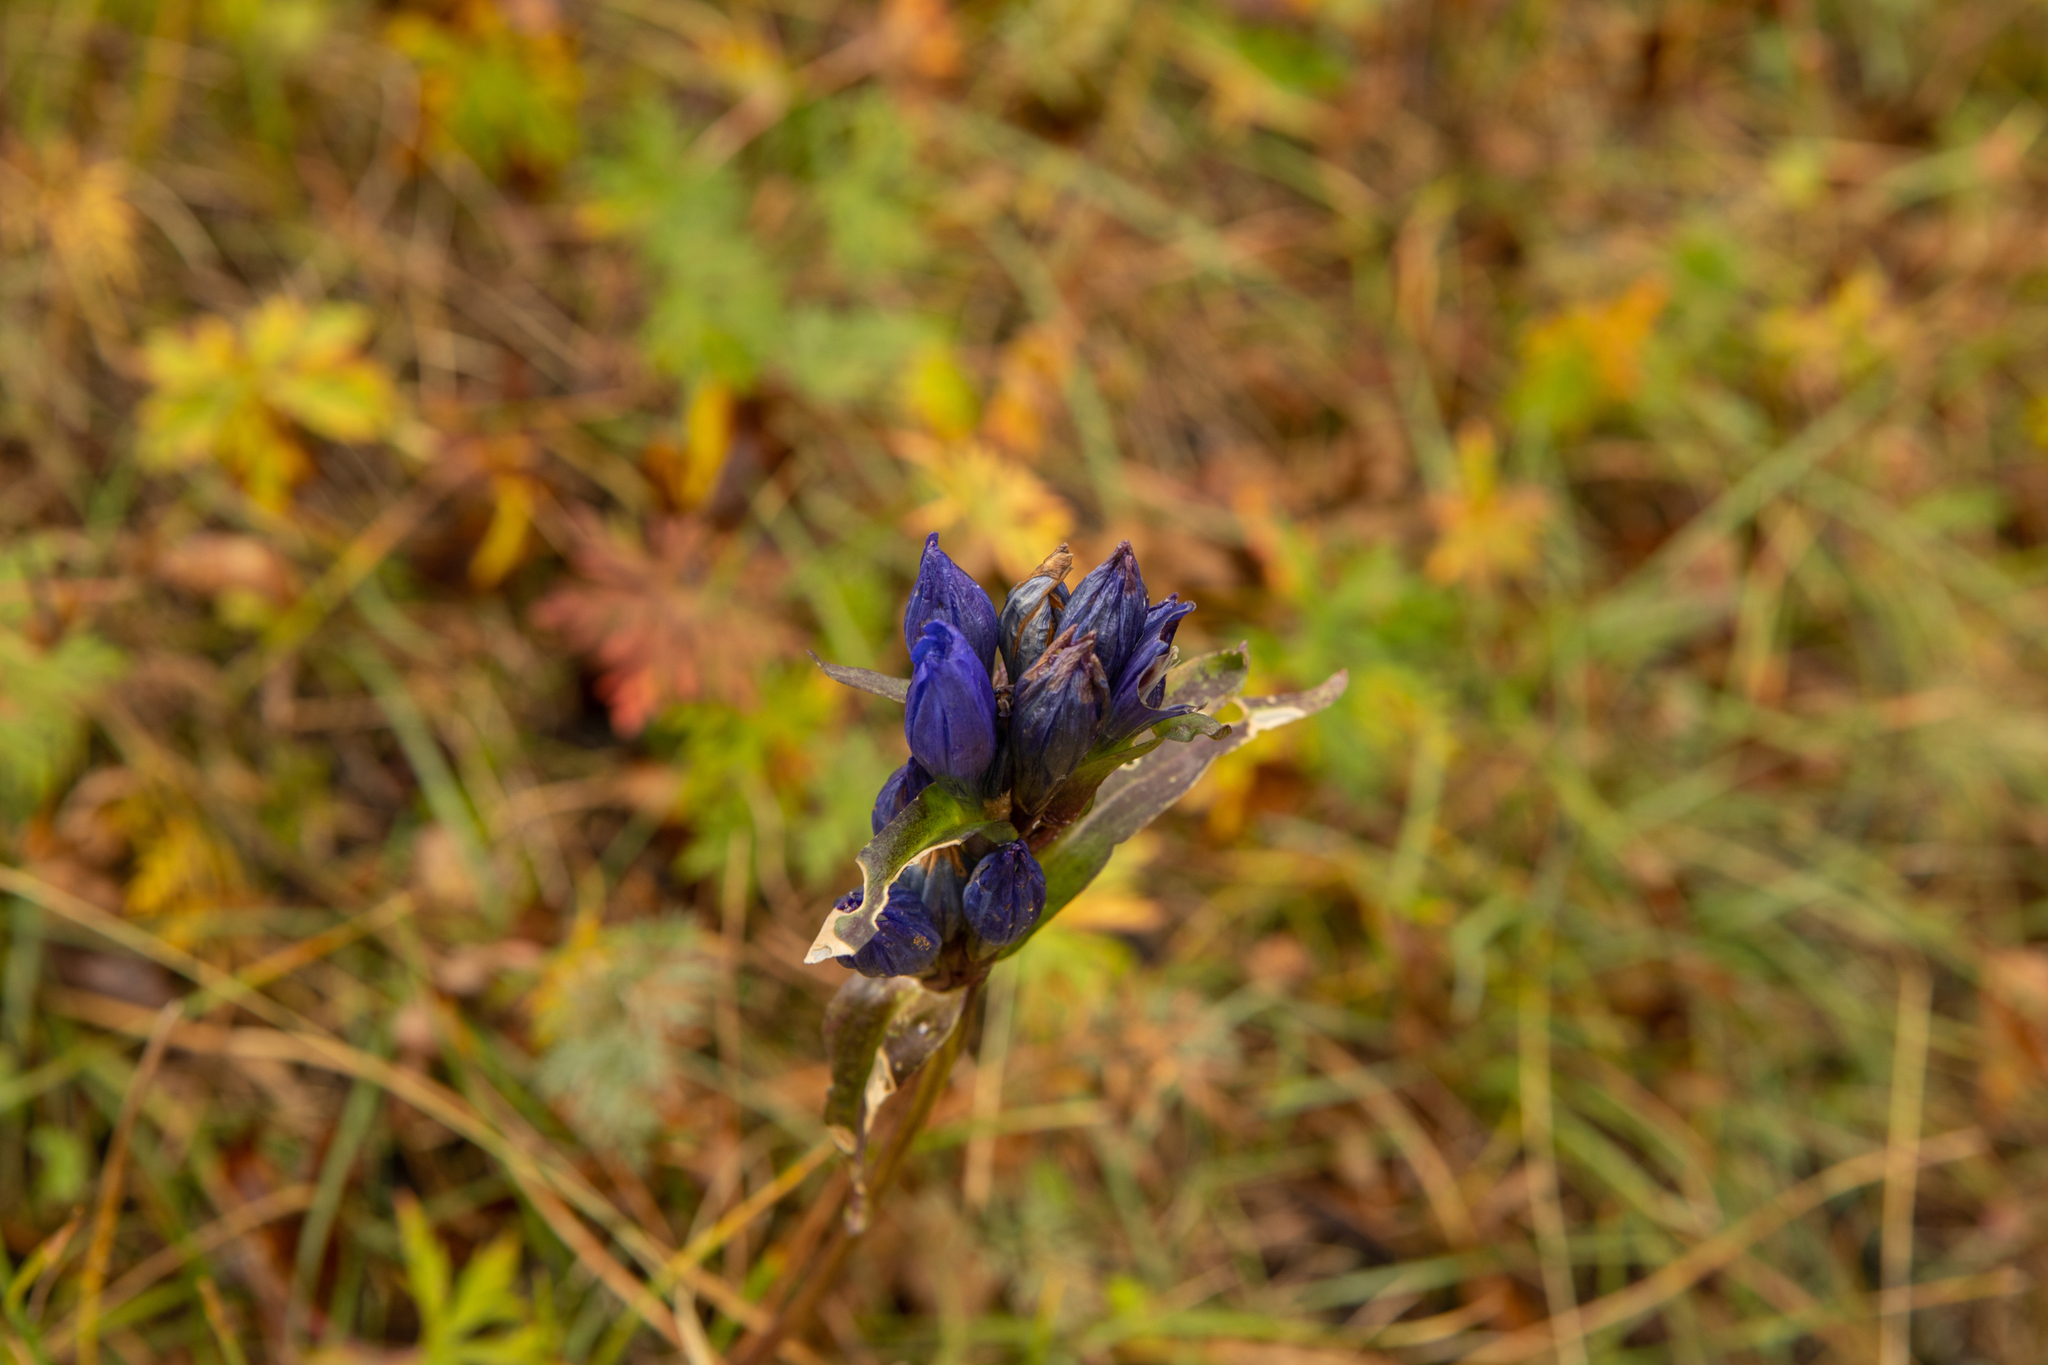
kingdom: Plantae
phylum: Tracheophyta
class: Magnoliopsida
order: Gentianales
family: Gentianaceae
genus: Gentiana
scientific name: Gentiana decumbens
